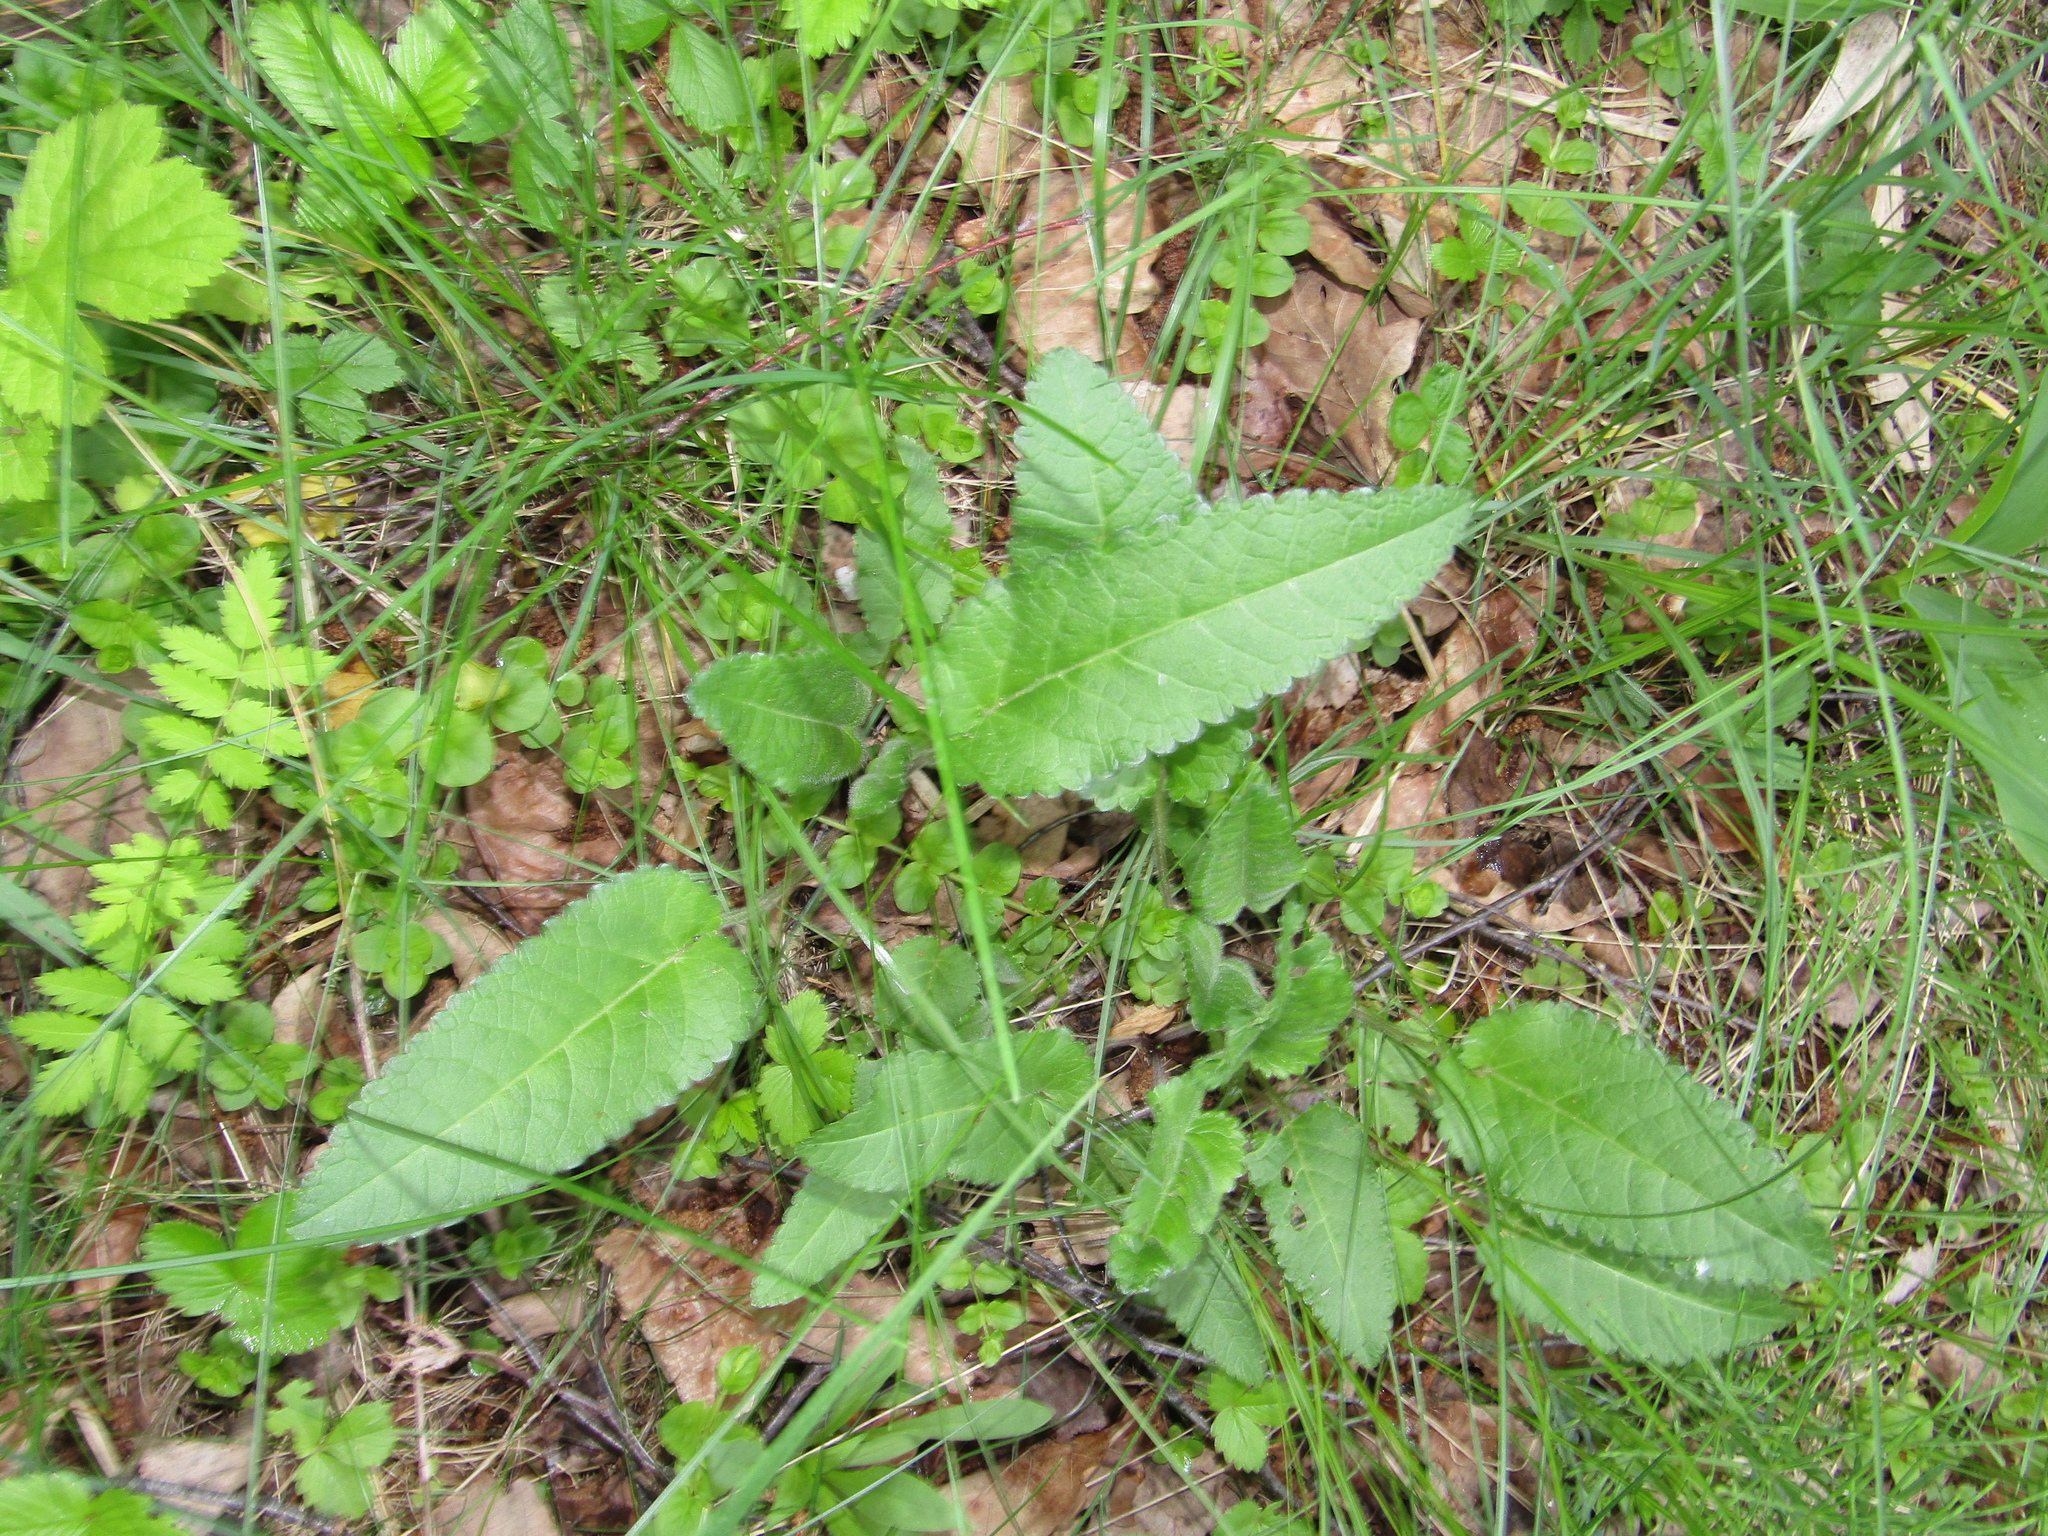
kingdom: Plantae
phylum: Tracheophyta
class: Magnoliopsida
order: Lamiales
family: Lamiaceae
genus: Betonica
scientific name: Betonica officinalis
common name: Bishop's-wort
